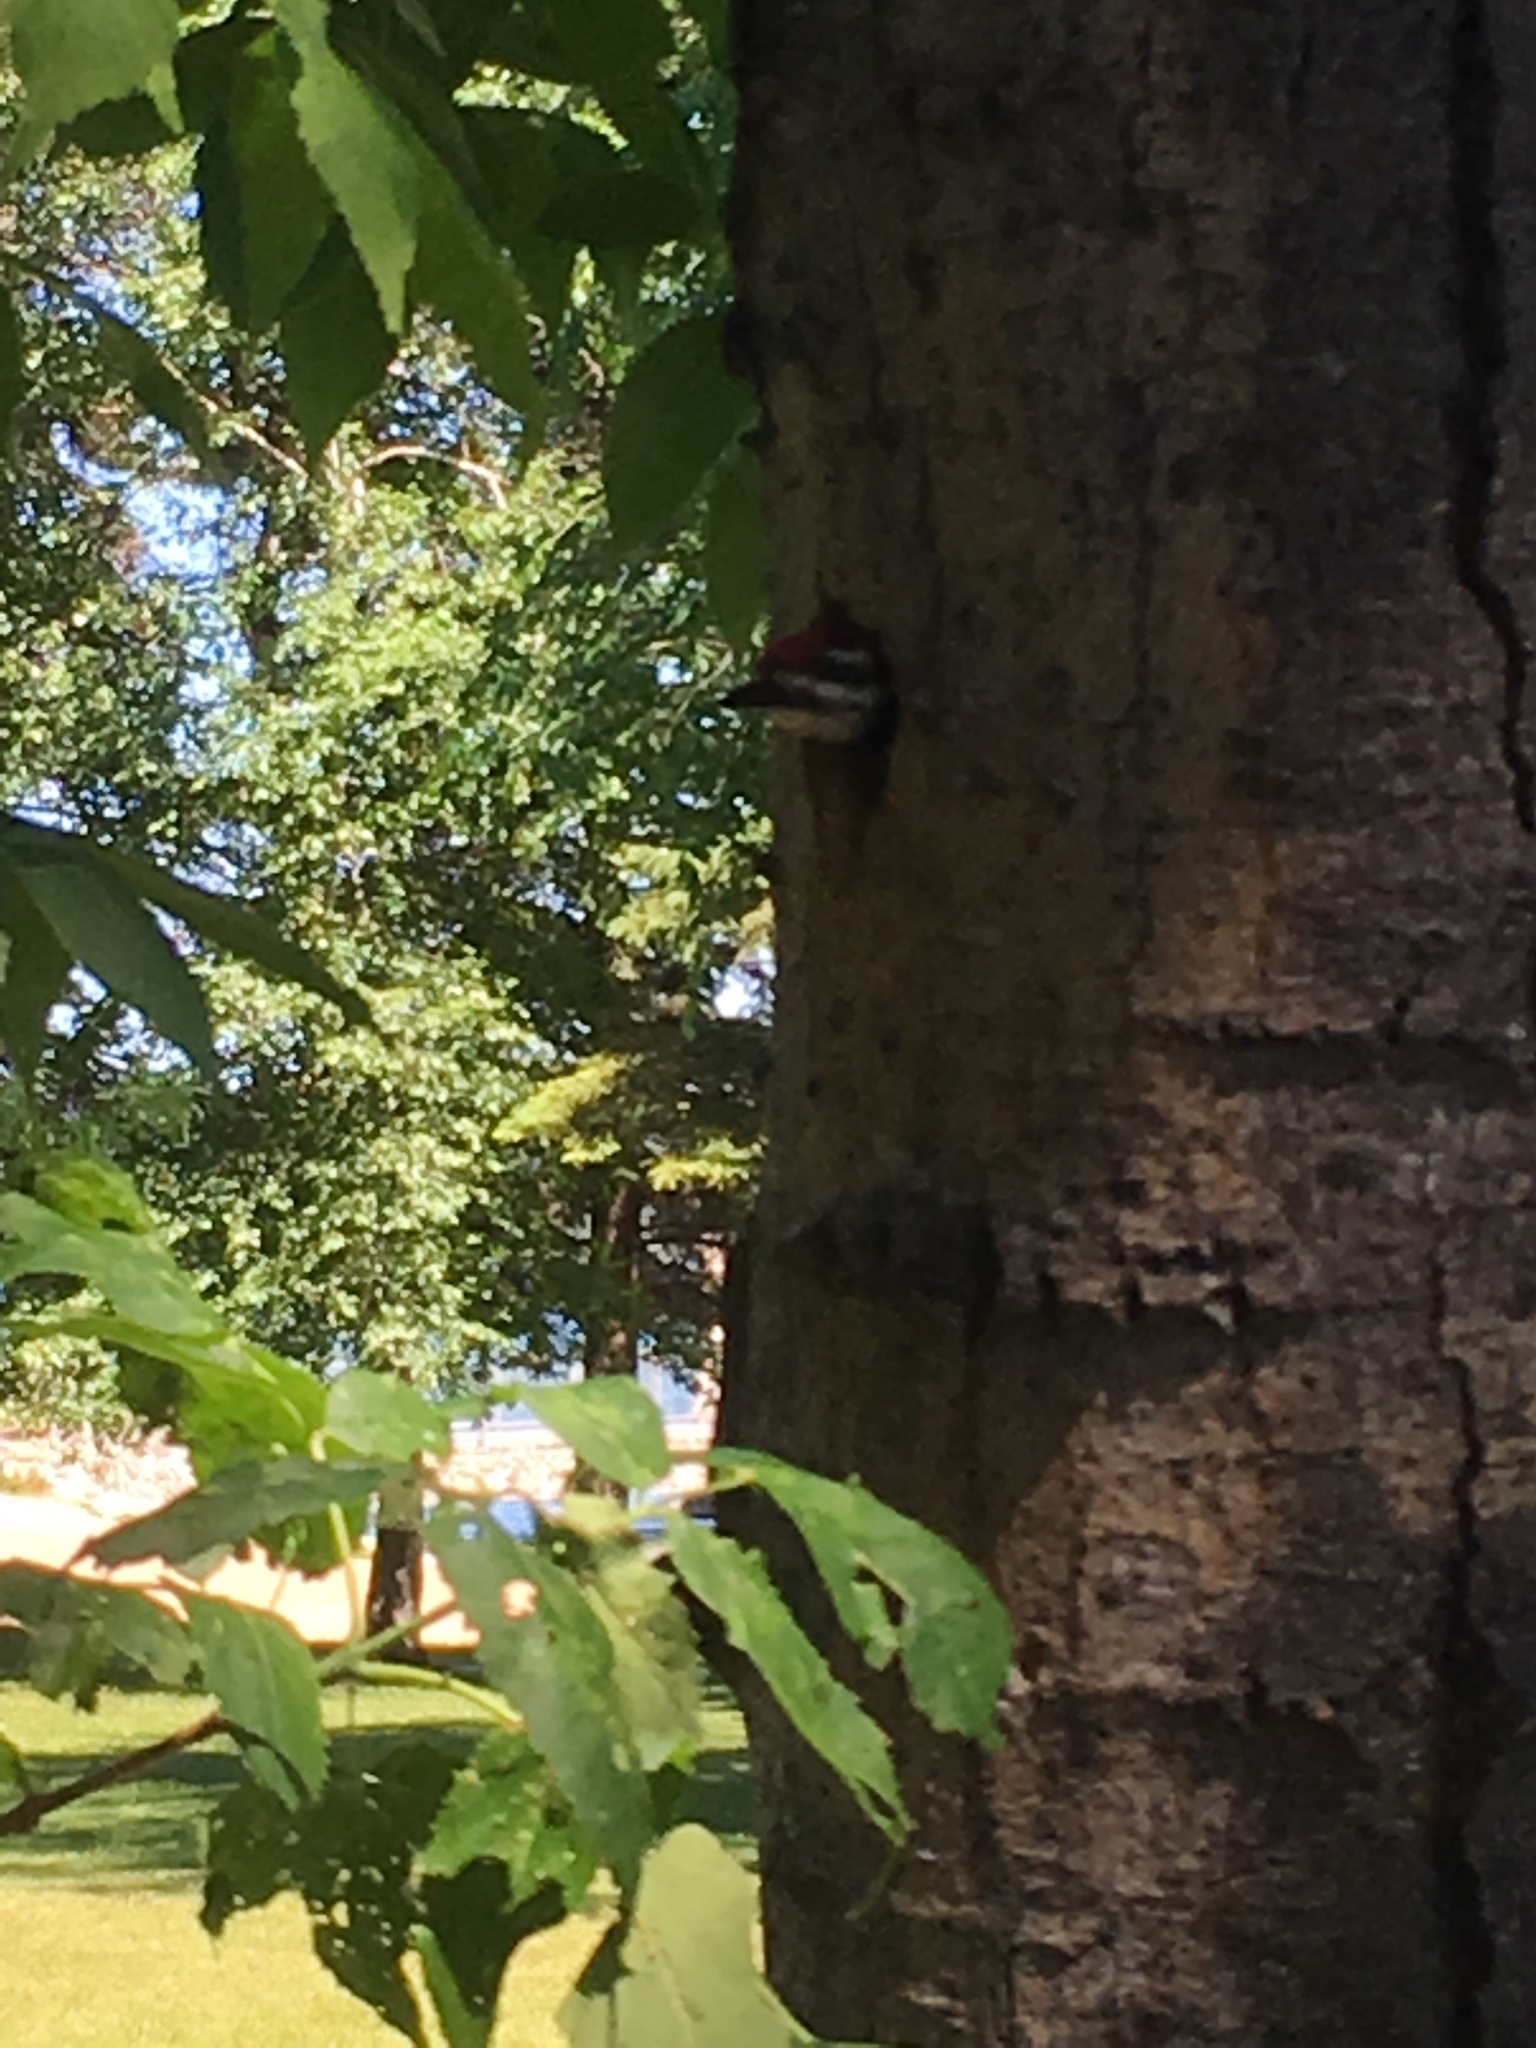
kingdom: Animalia
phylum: Chordata
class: Aves
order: Piciformes
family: Picidae
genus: Sphyrapicus
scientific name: Sphyrapicus varius
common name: Yellow-bellied sapsucker
